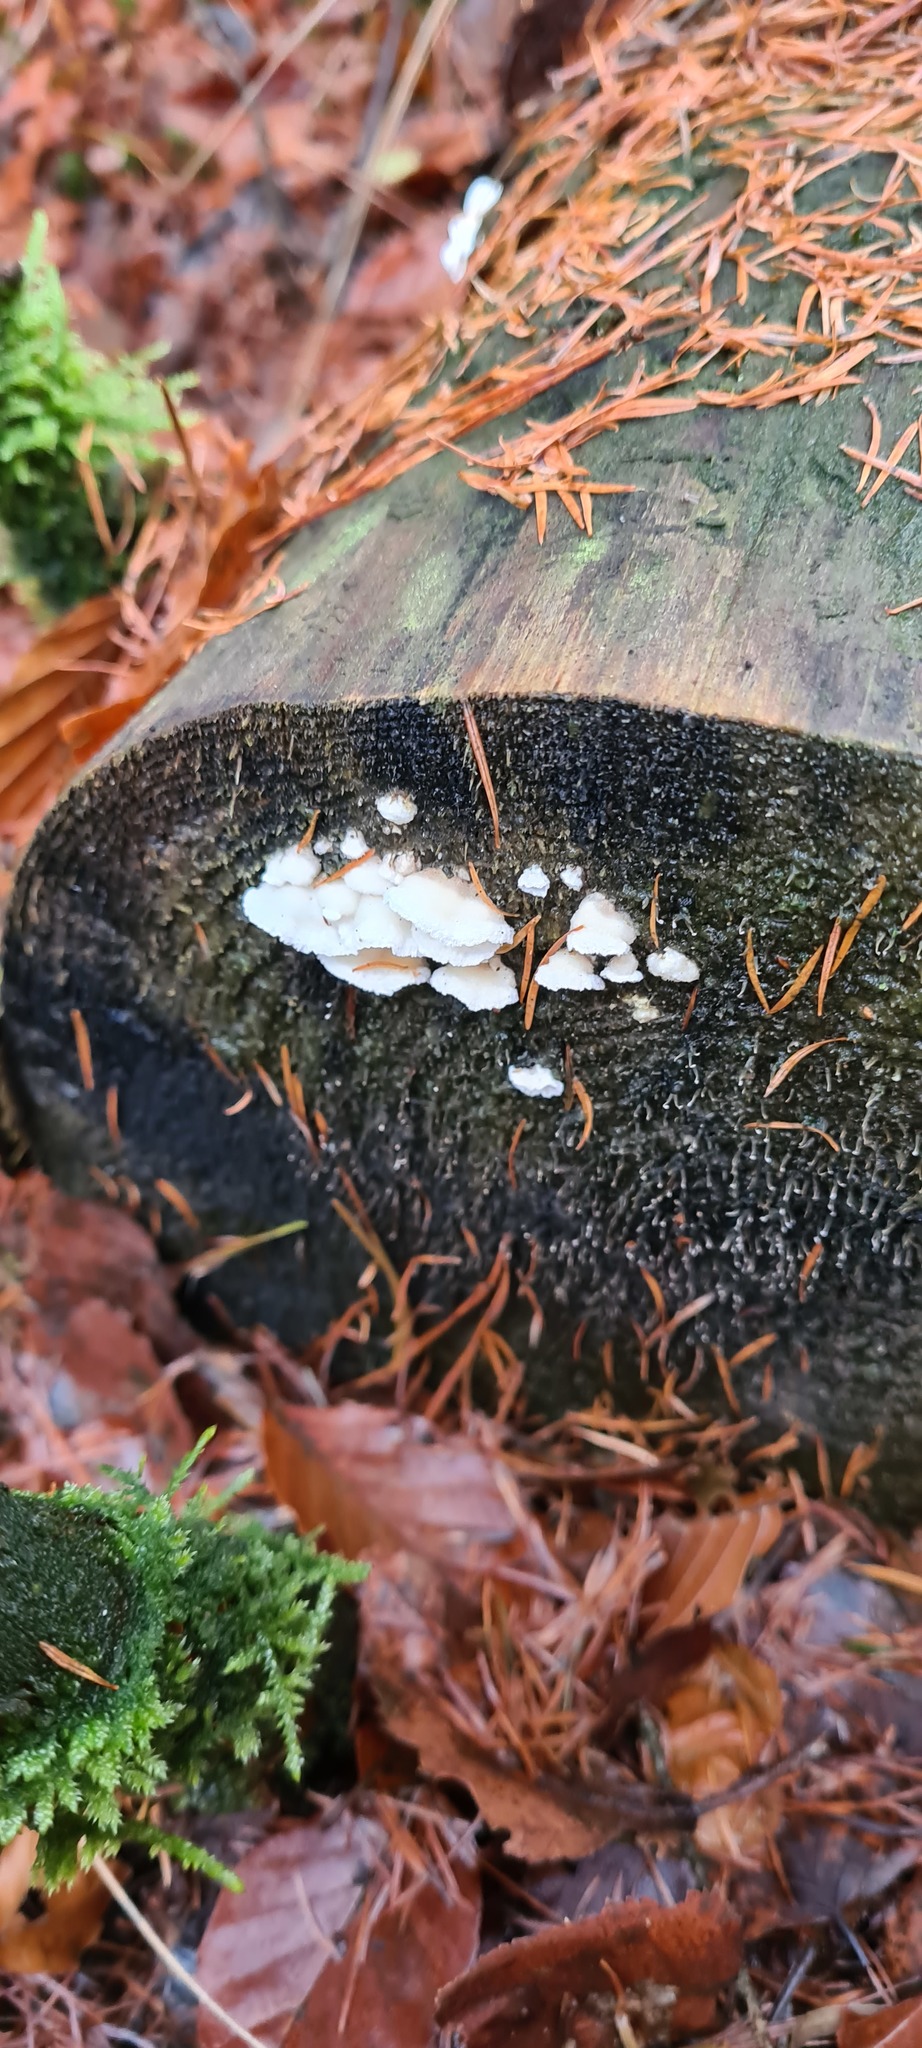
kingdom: Fungi
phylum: Basidiomycota
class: Agaricomycetes
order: Polyporales
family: Incrustoporiaceae
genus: Skeletocutis
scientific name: Skeletocutis amorpha
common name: Rusty crust
